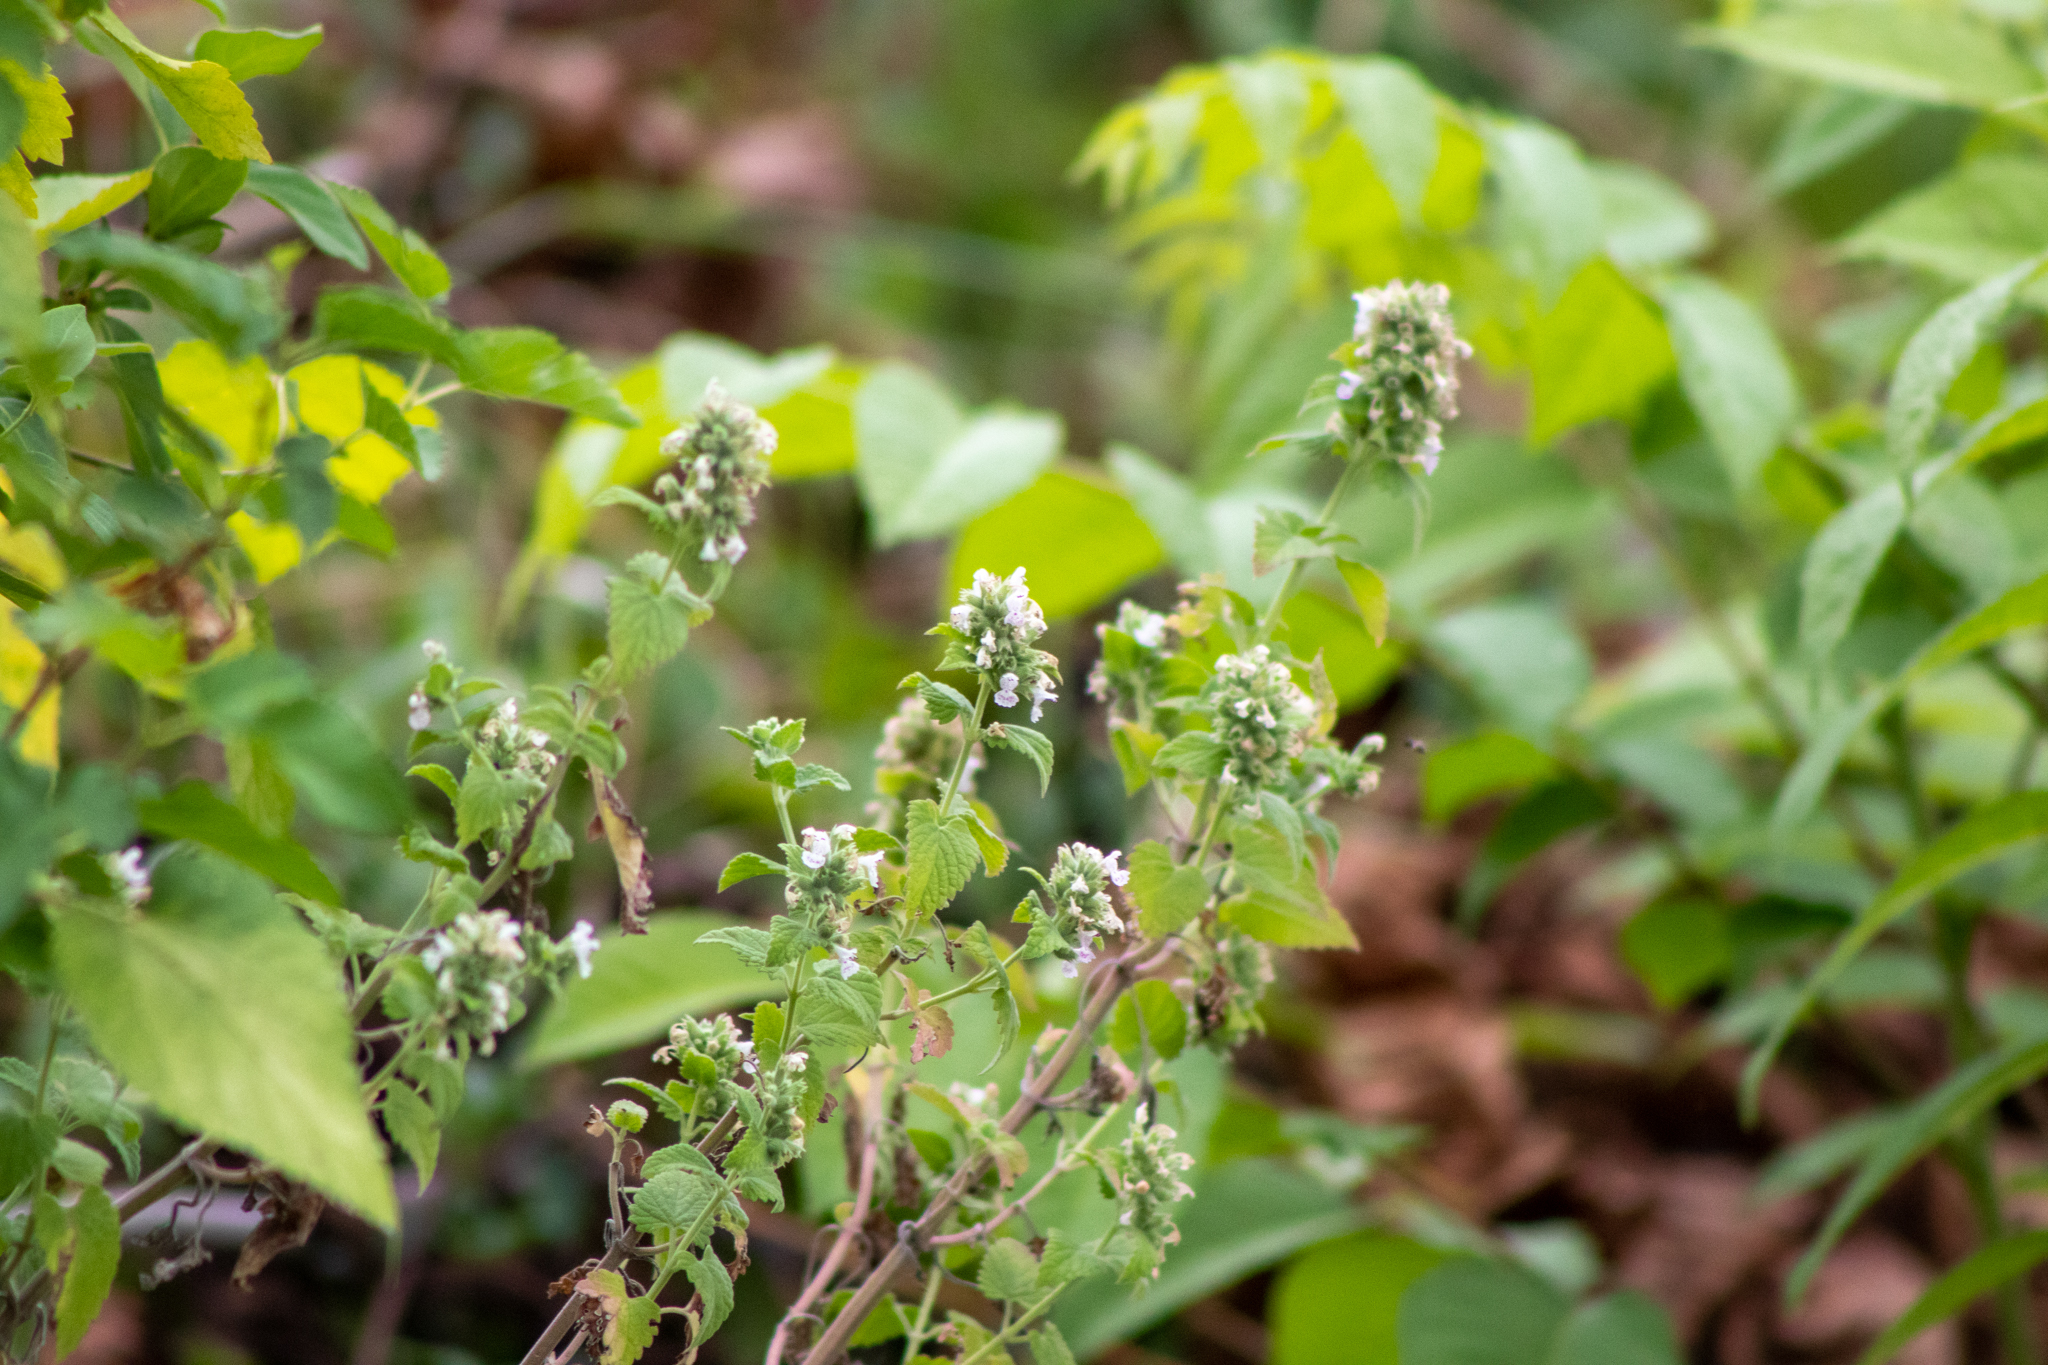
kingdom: Plantae
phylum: Tracheophyta
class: Magnoliopsida
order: Lamiales
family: Lamiaceae
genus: Nepeta
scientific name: Nepeta cataria
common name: Catnip
